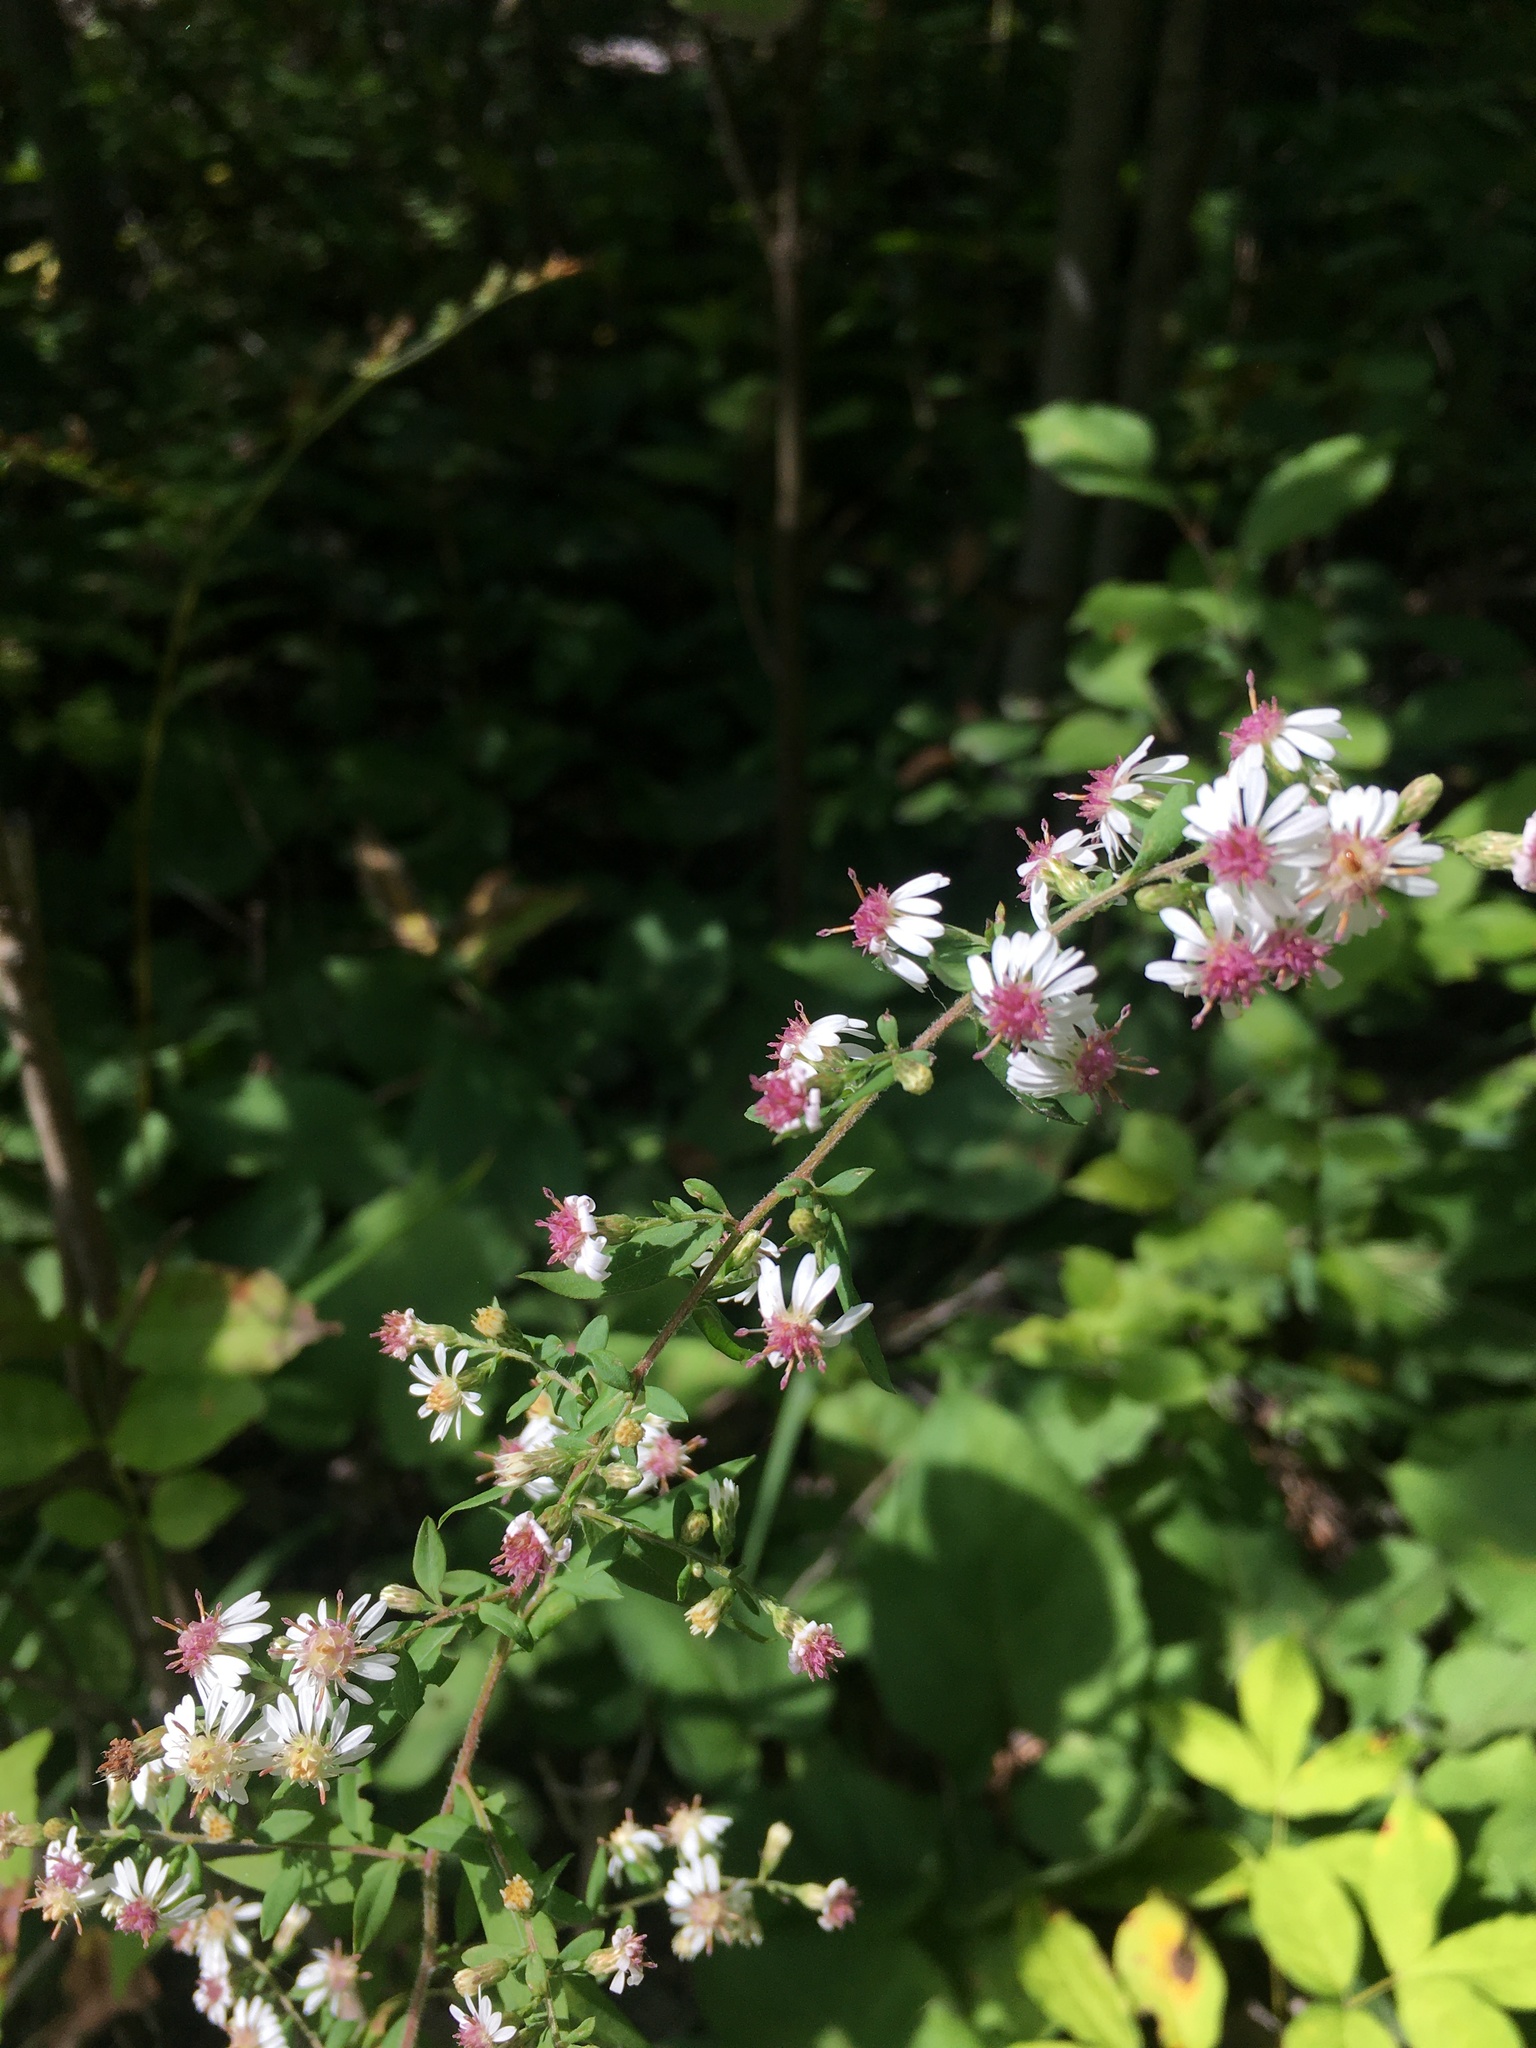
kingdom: Plantae
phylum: Tracheophyta
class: Magnoliopsida
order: Asterales
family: Asteraceae
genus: Symphyotrichum
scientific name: Symphyotrichum lateriflorum
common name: Calico aster
